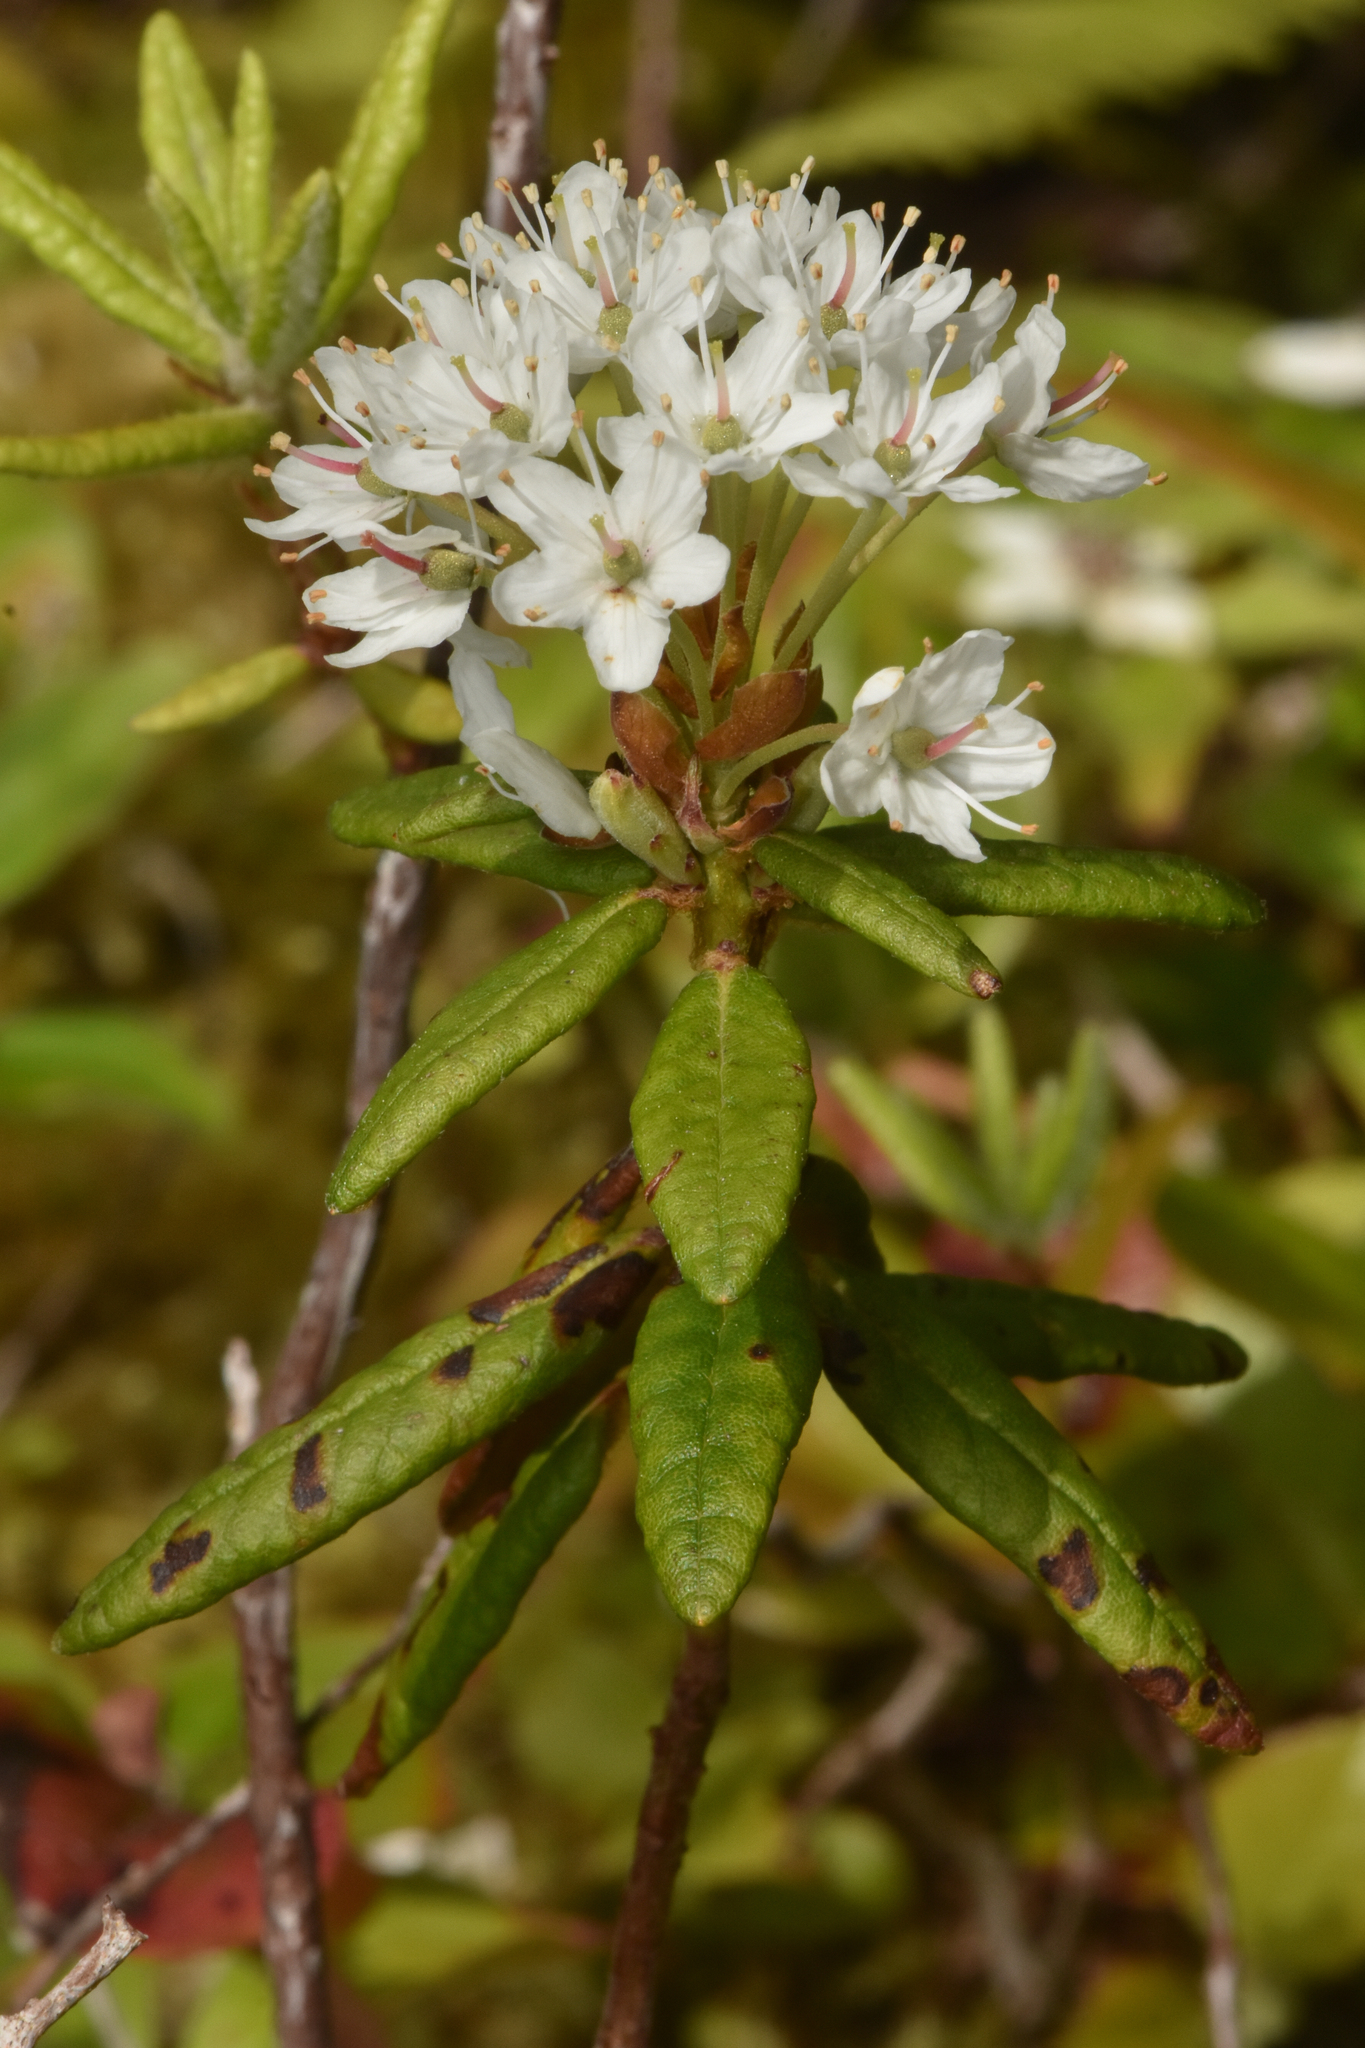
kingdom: Plantae
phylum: Tracheophyta
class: Magnoliopsida
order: Ericales
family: Ericaceae
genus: Rhododendron
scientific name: Rhododendron groenlandicum
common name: Bog labrador tea
